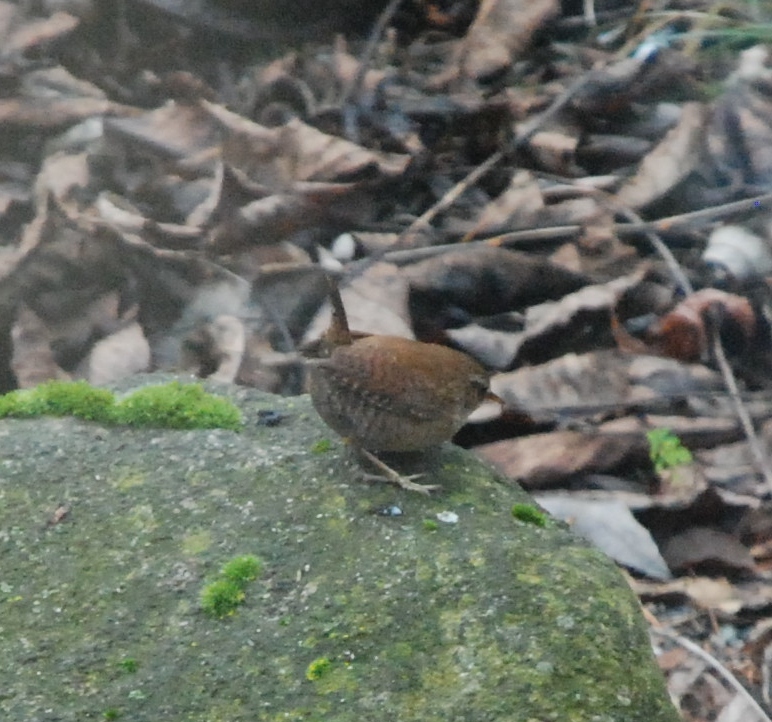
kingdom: Animalia
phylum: Chordata
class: Aves
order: Passeriformes
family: Troglodytidae
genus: Troglodytes
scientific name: Troglodytes troglodytes
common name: Eurasian wren
